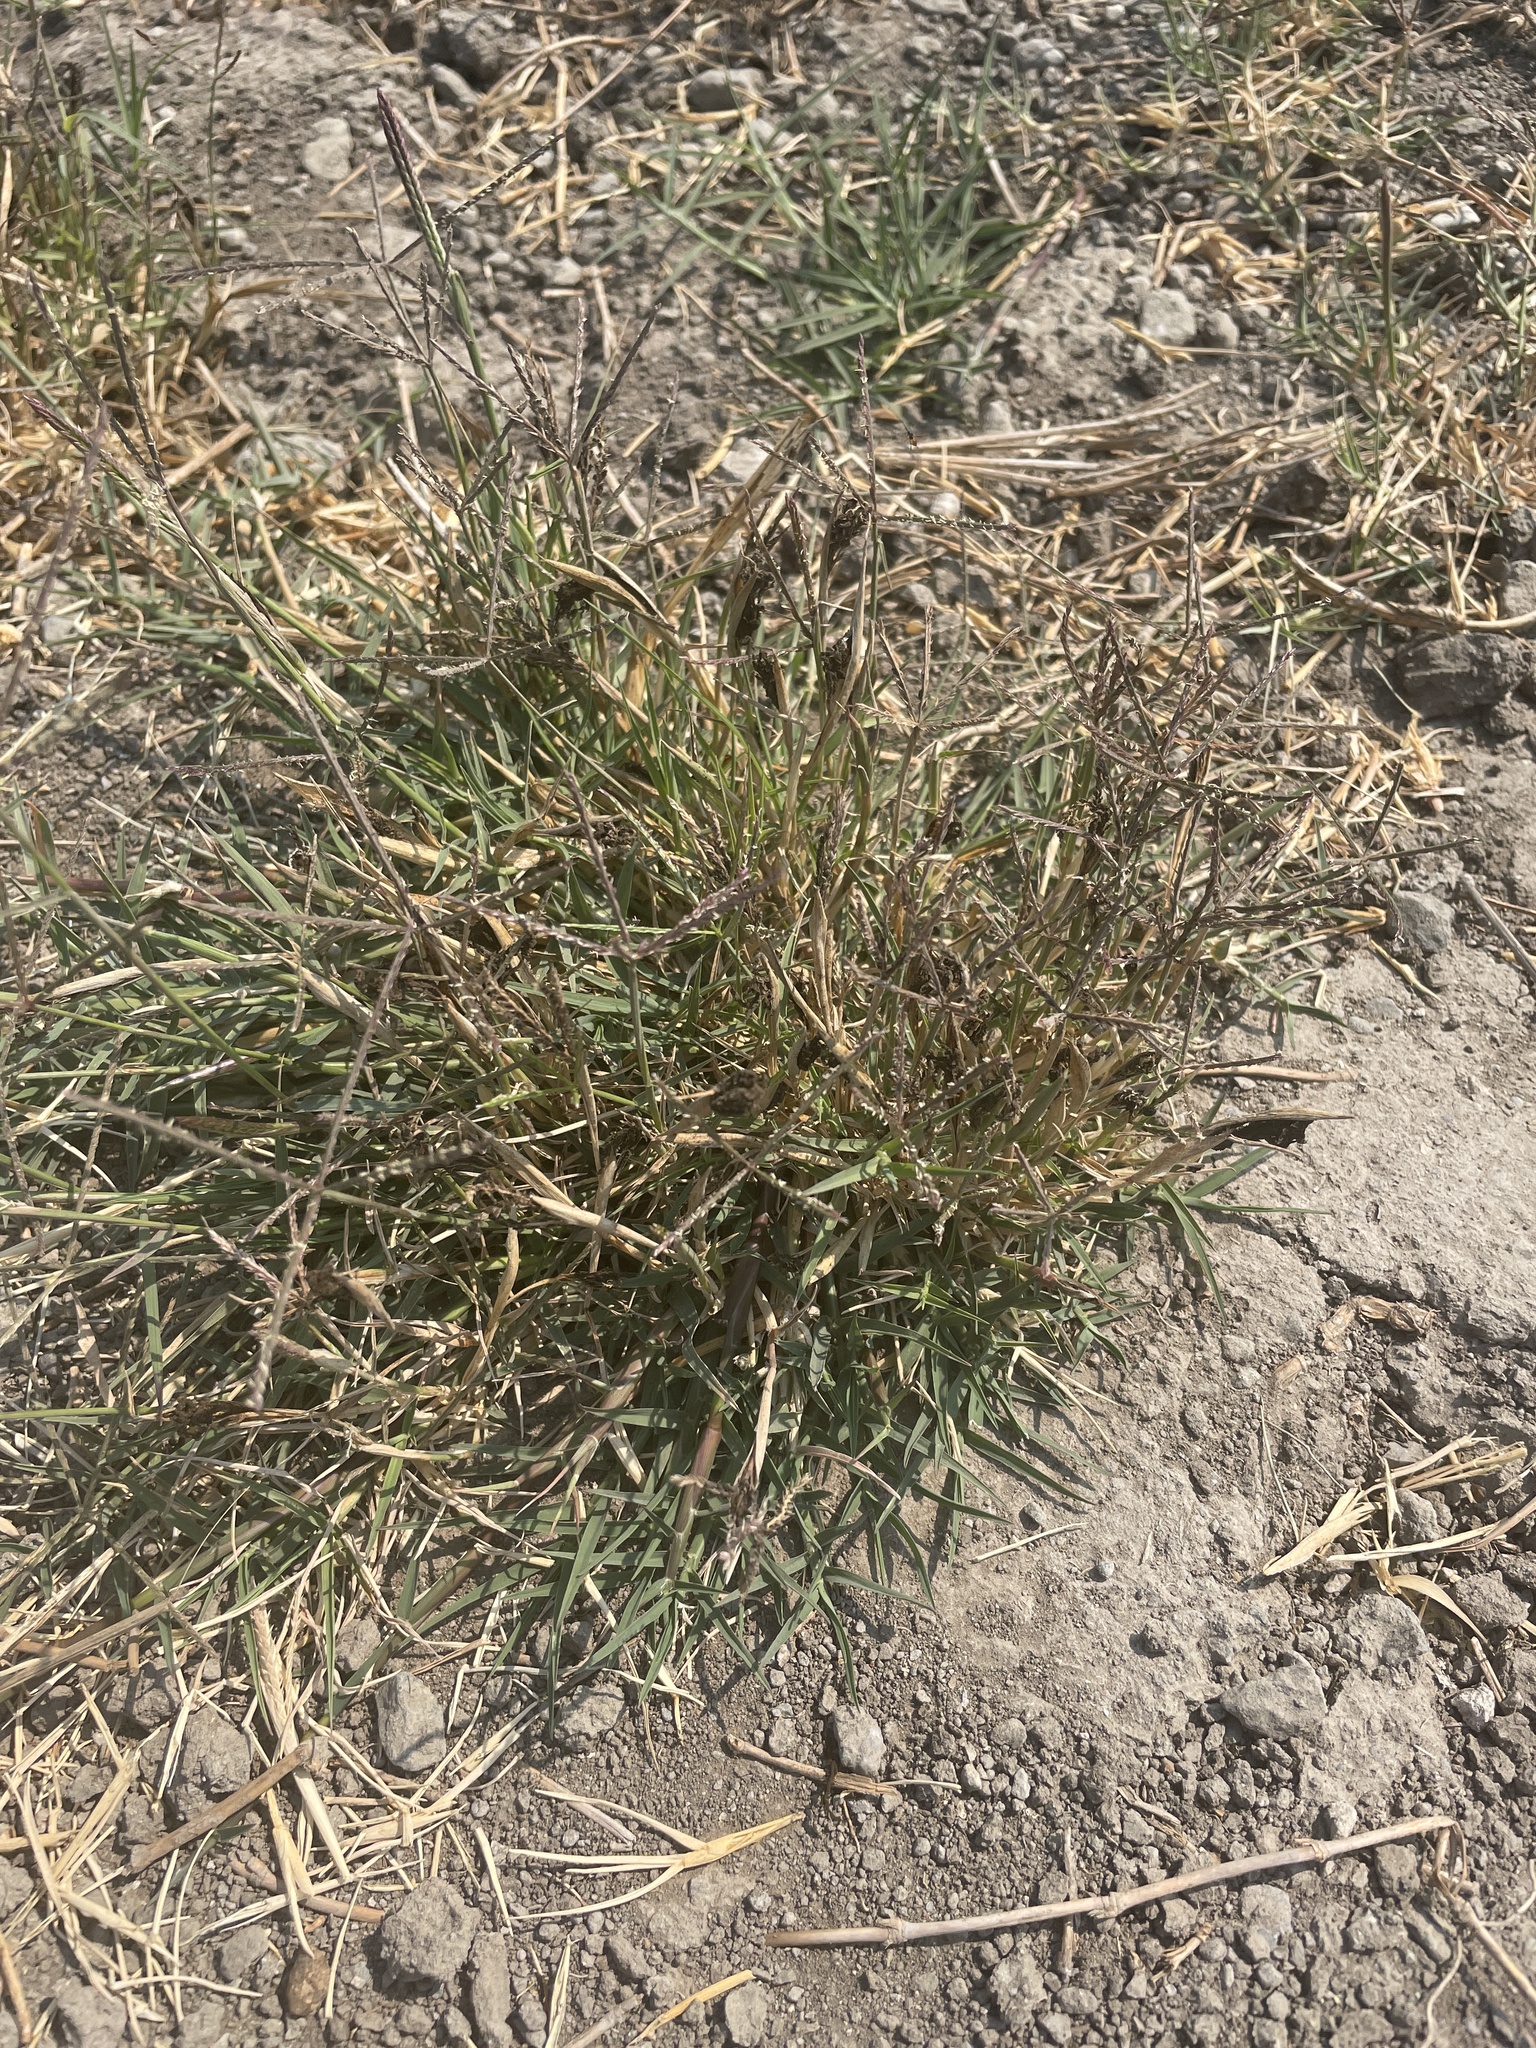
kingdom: Fungi
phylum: Basidiomycota
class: Ustilaginomycetes
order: Ustilaginales
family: Ustilaginaceae
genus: Ustilago
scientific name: Ustilago cynodontis
